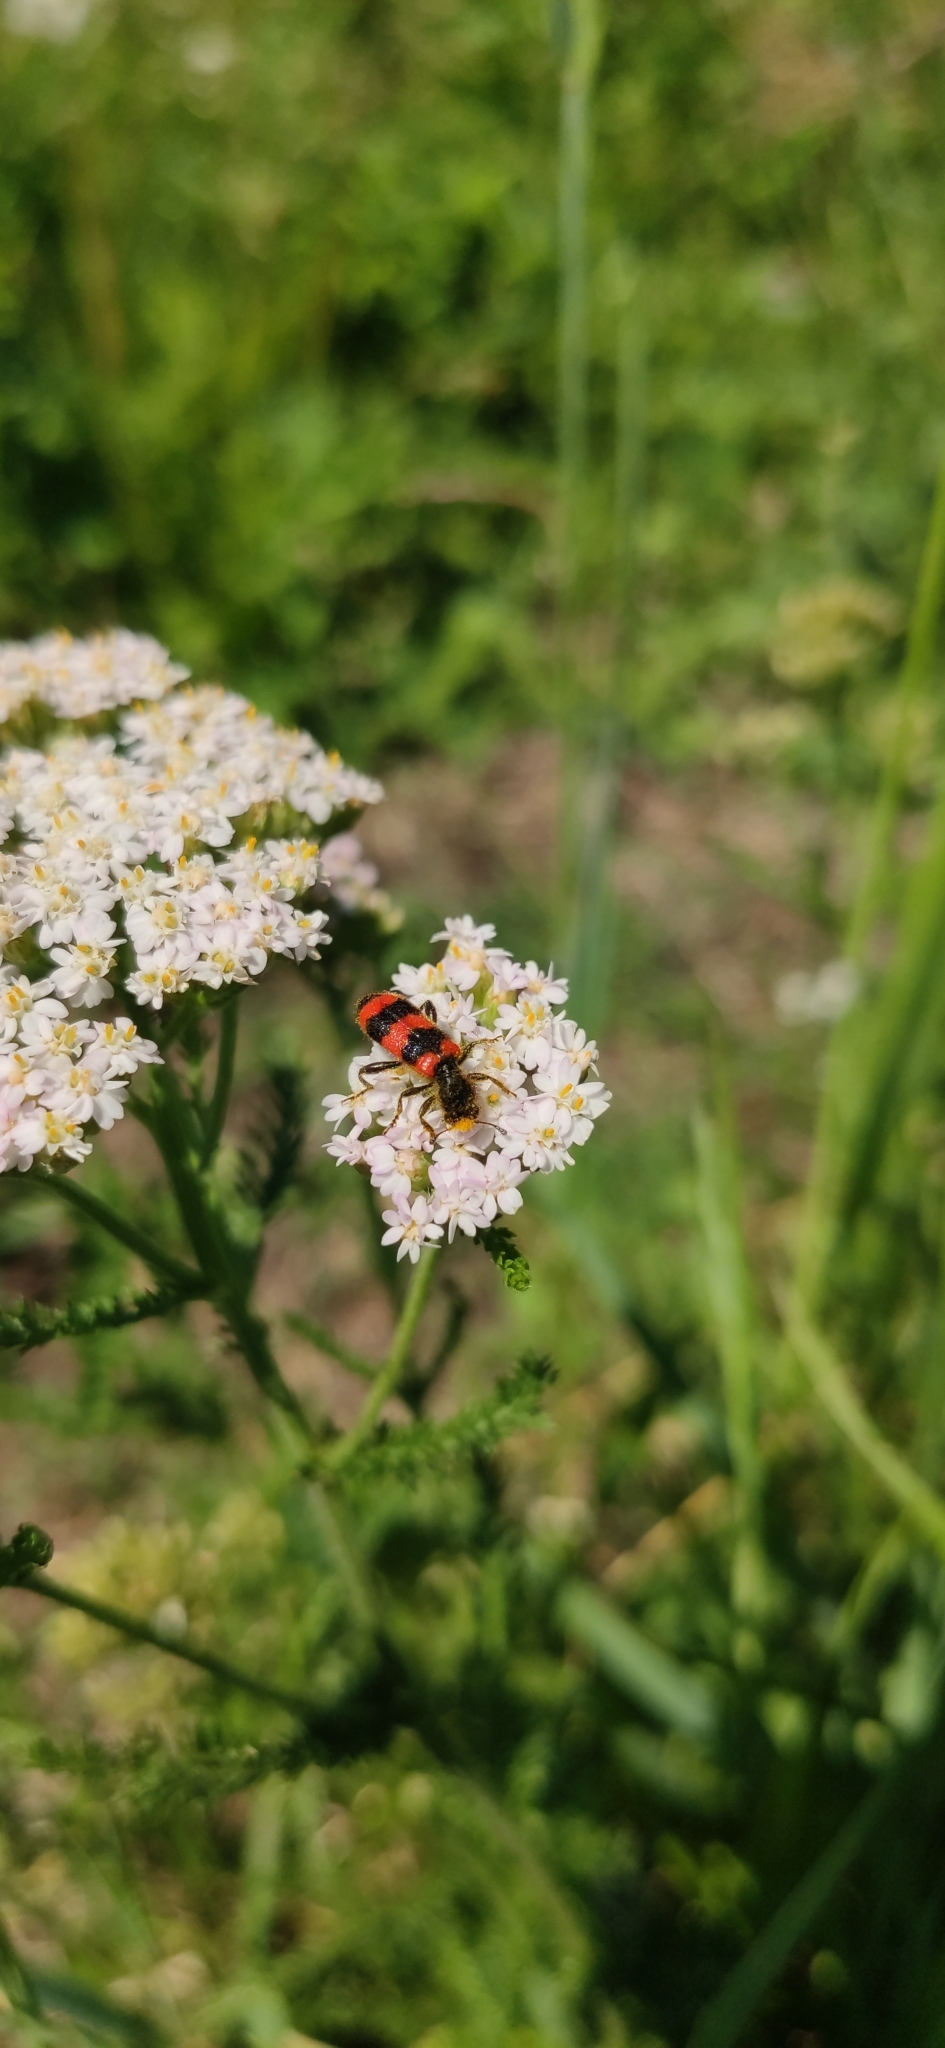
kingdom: Animalia
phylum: Arthropoda
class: Insecta
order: Coleoptera
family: Cleridae
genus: Trichodes
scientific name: Trichodes apiarius
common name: Bee-eating beetle
